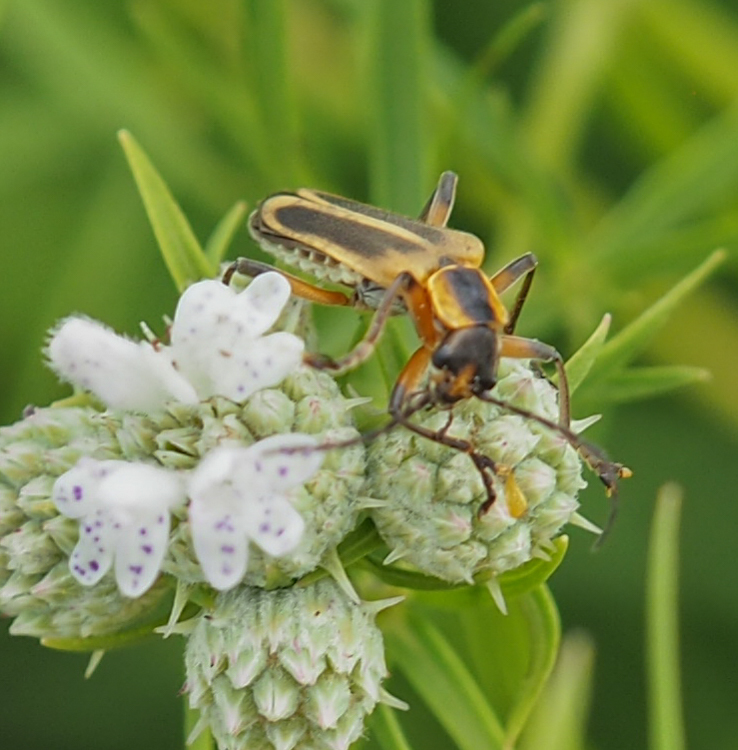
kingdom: Animalia
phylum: Arthropoda
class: Insecta
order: Coleoptera
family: Cantharidae
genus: Chauliognathus
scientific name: Chauliognathus marginatus
